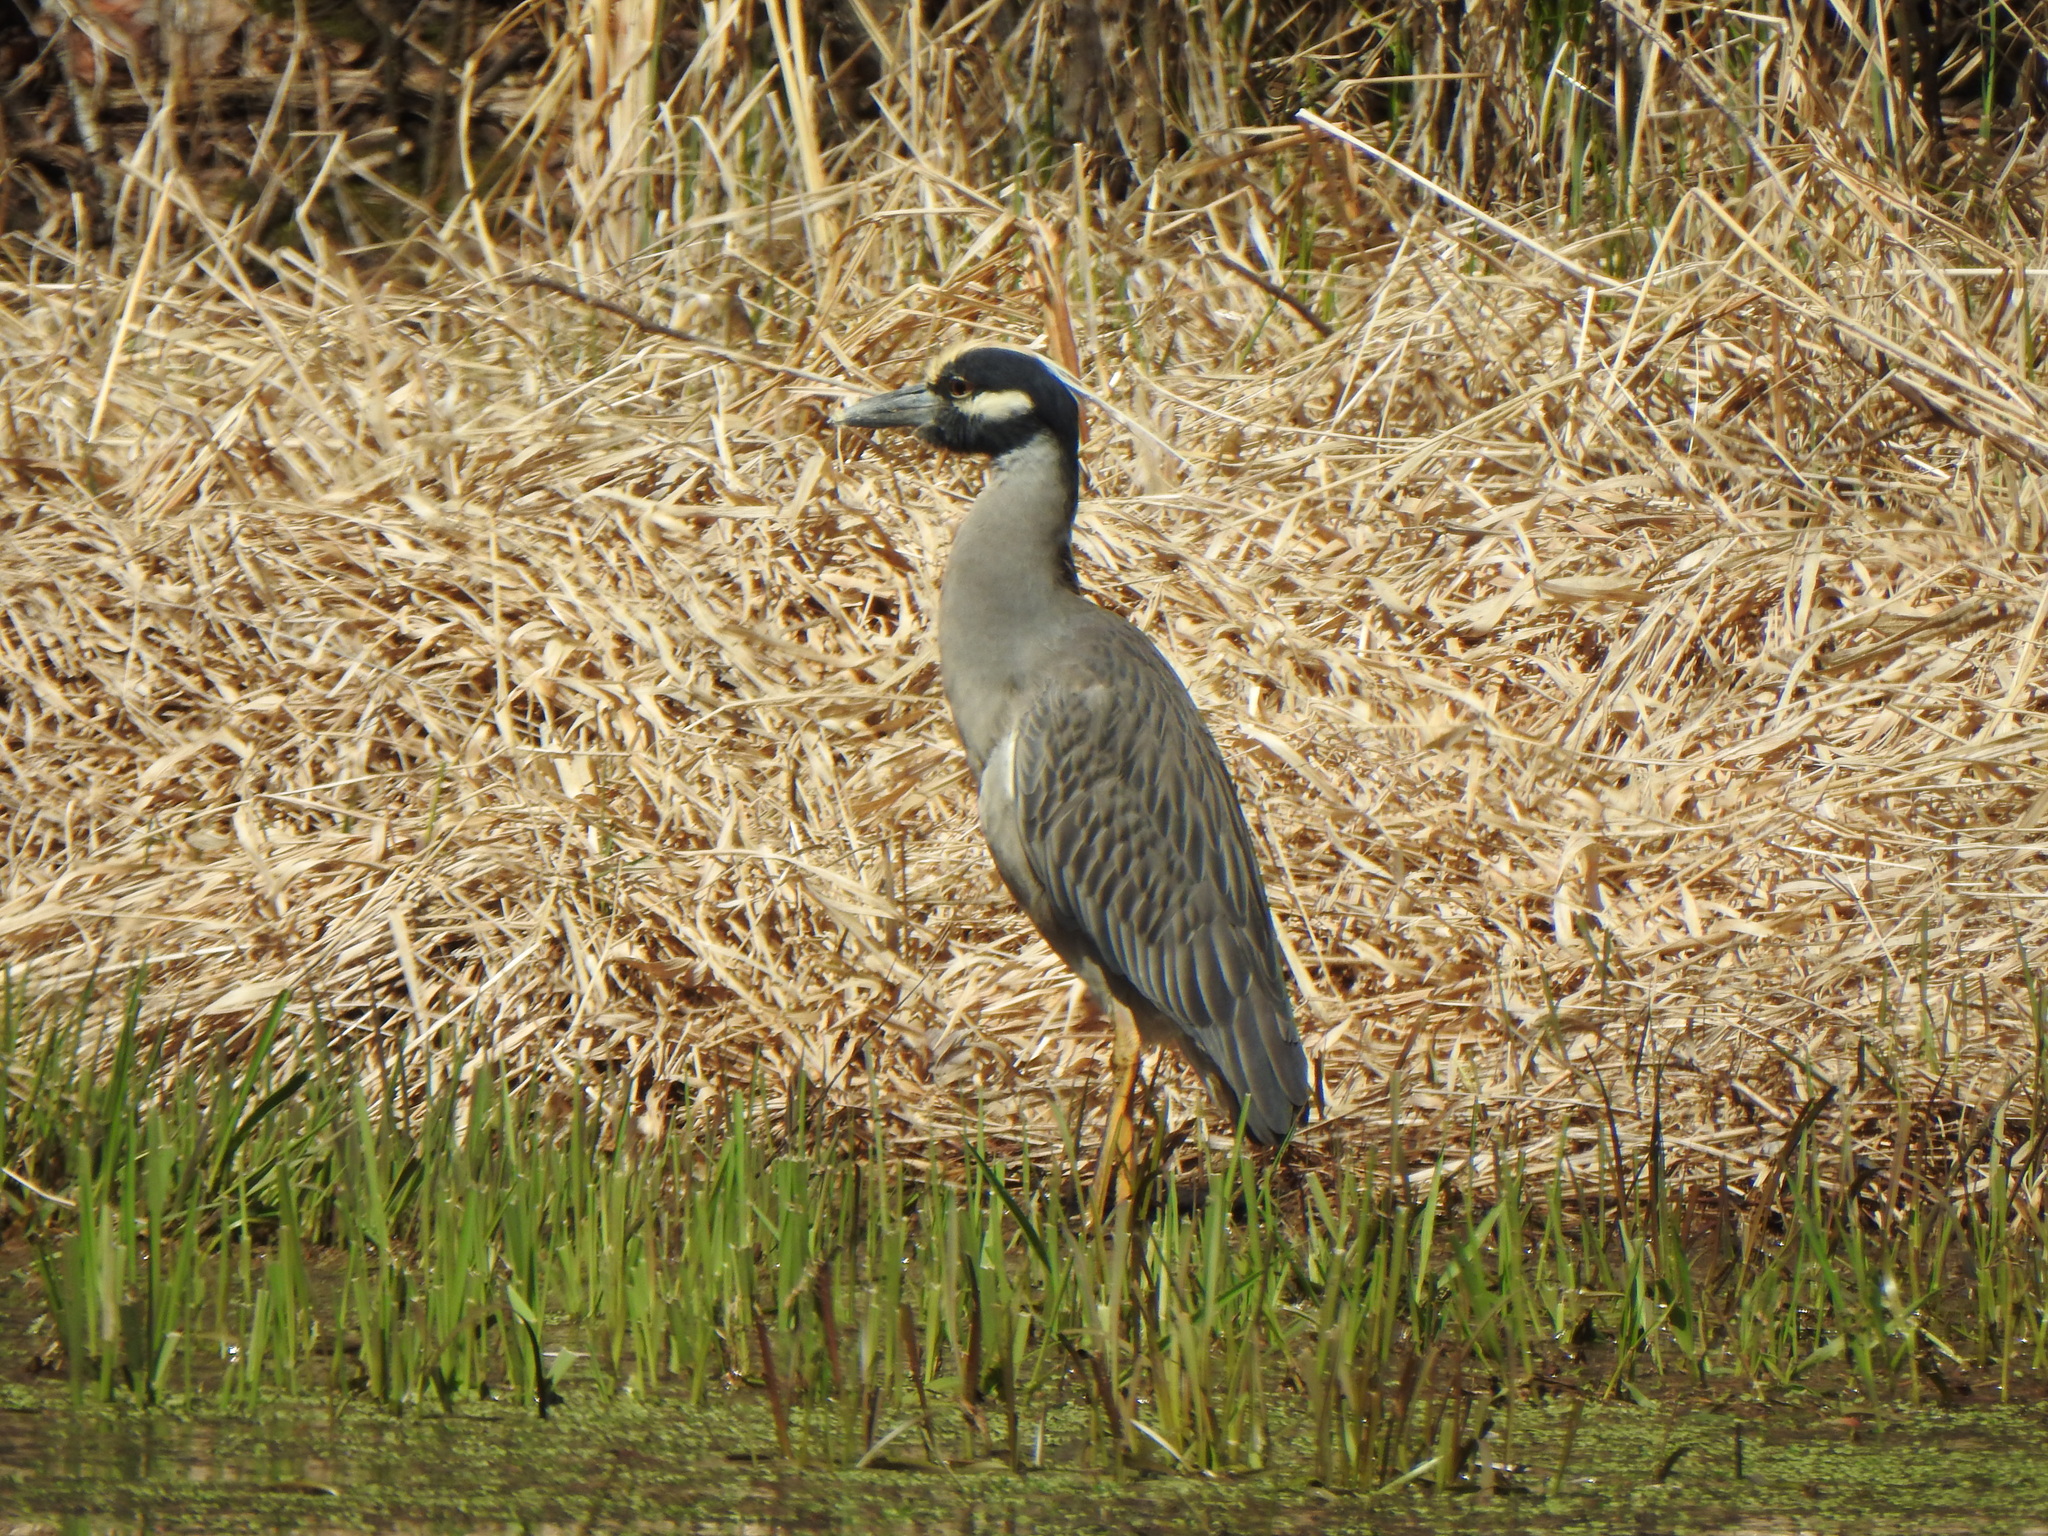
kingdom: Animalia
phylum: Chordata
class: Aves
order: Pelecaniformes
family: Ardeidae
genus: Nyctanassa
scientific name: Nyctanassa violacea
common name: Yellow-crowned night heron
